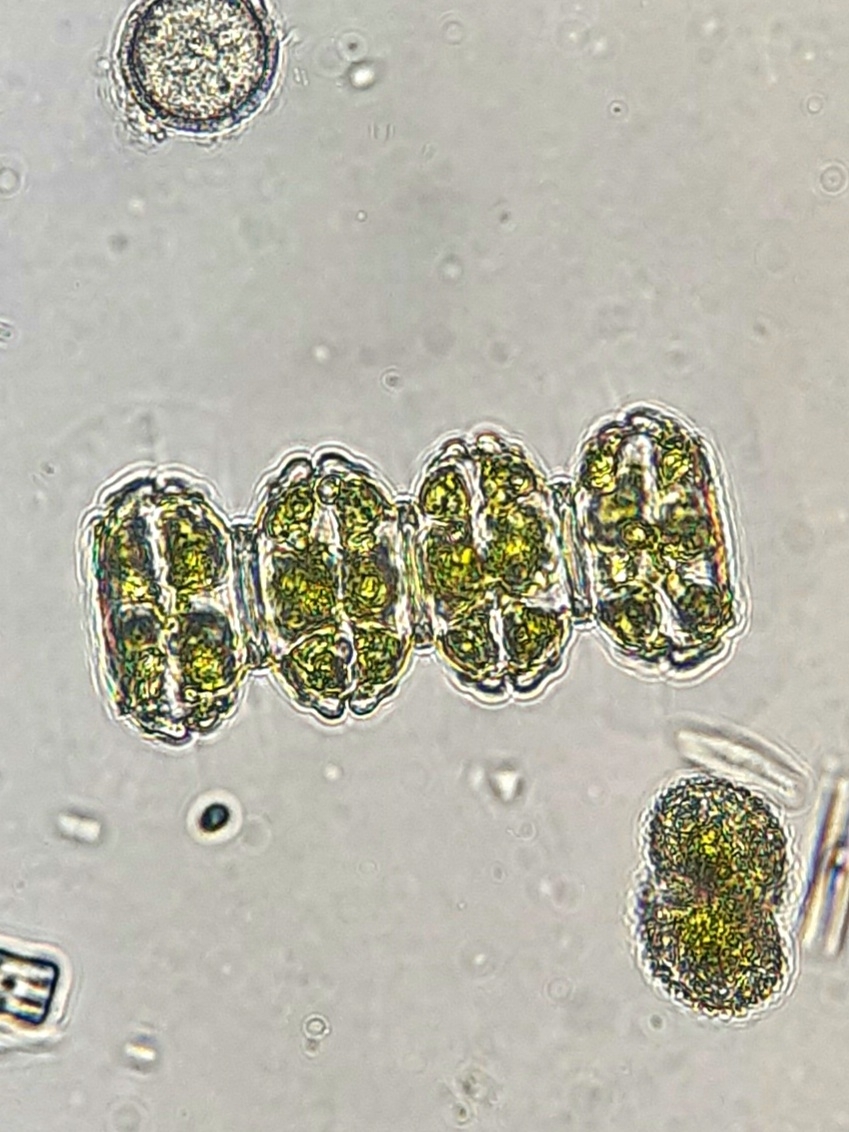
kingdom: Plantae
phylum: Charophyta
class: Conjugatophyceae
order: Desmidiales
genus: Desmidium
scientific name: Desmidium grevillei
